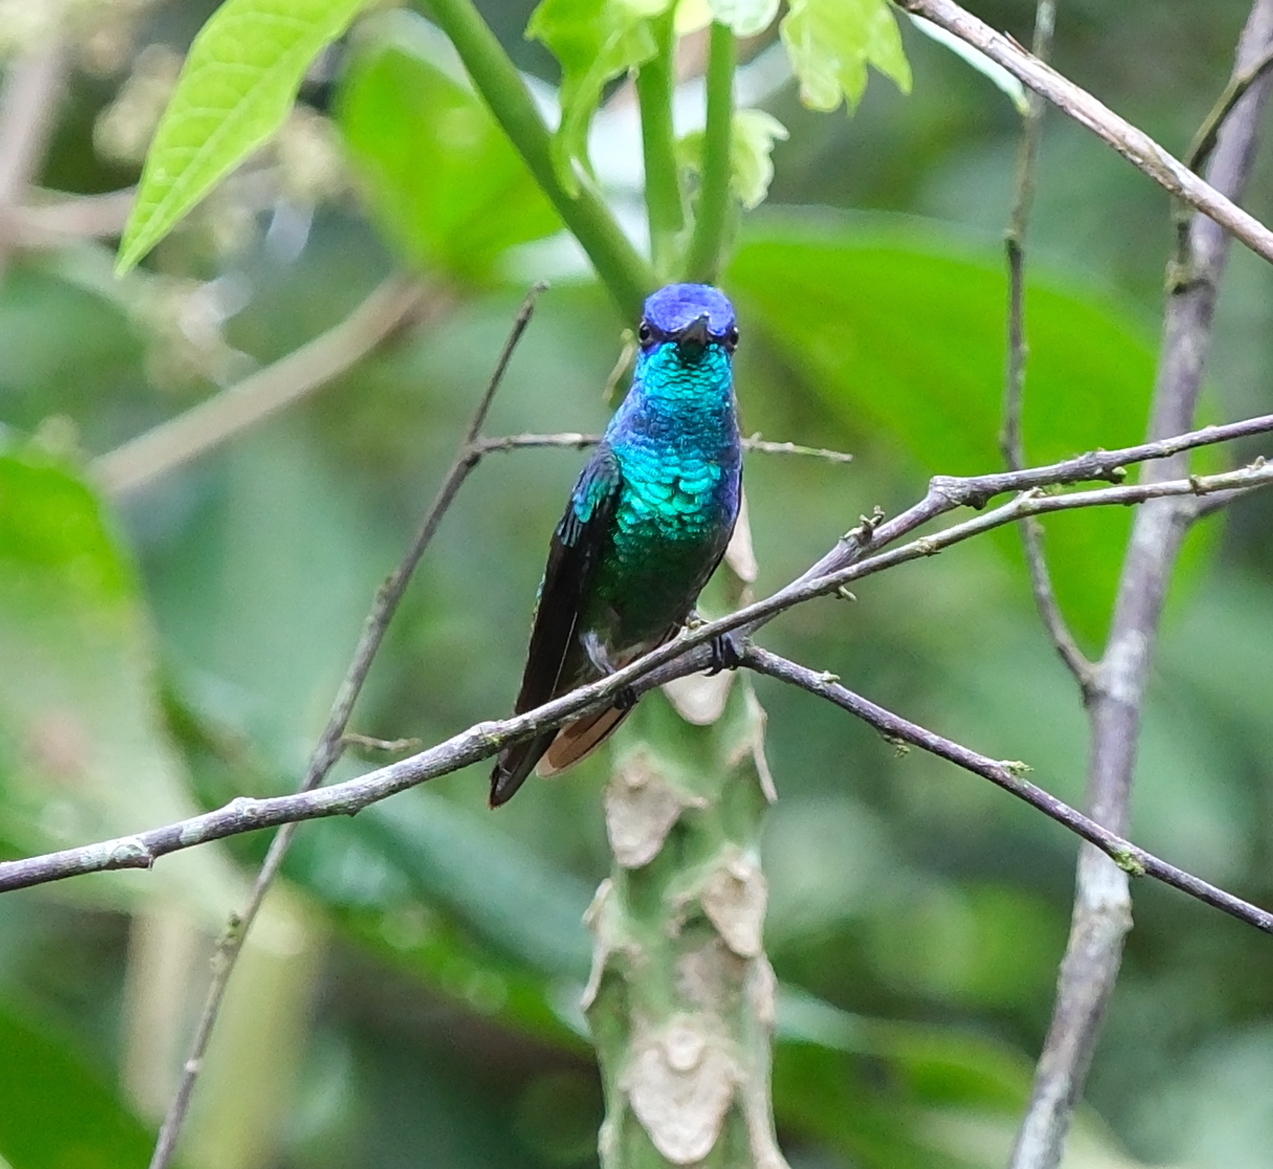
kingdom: Animalia
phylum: Chordata
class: Aves
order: Apodiformes
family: Trochilidae
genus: Chrysuronia
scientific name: Chrysuronia oenone
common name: Golden-tailed sapphire
